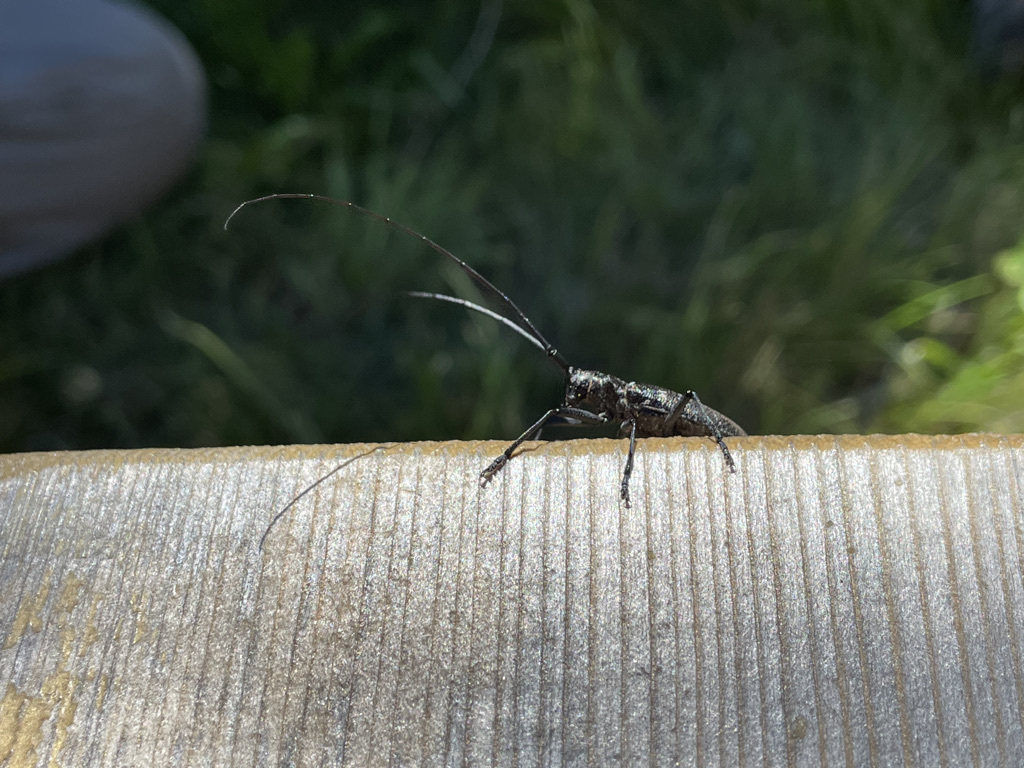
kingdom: Animalia
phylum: Arthropoda
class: Insecta
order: Coleoptera
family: Cerambycidae
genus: Monochamus
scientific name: Monochamus scutellatus
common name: White-spotted sawyer beetle
